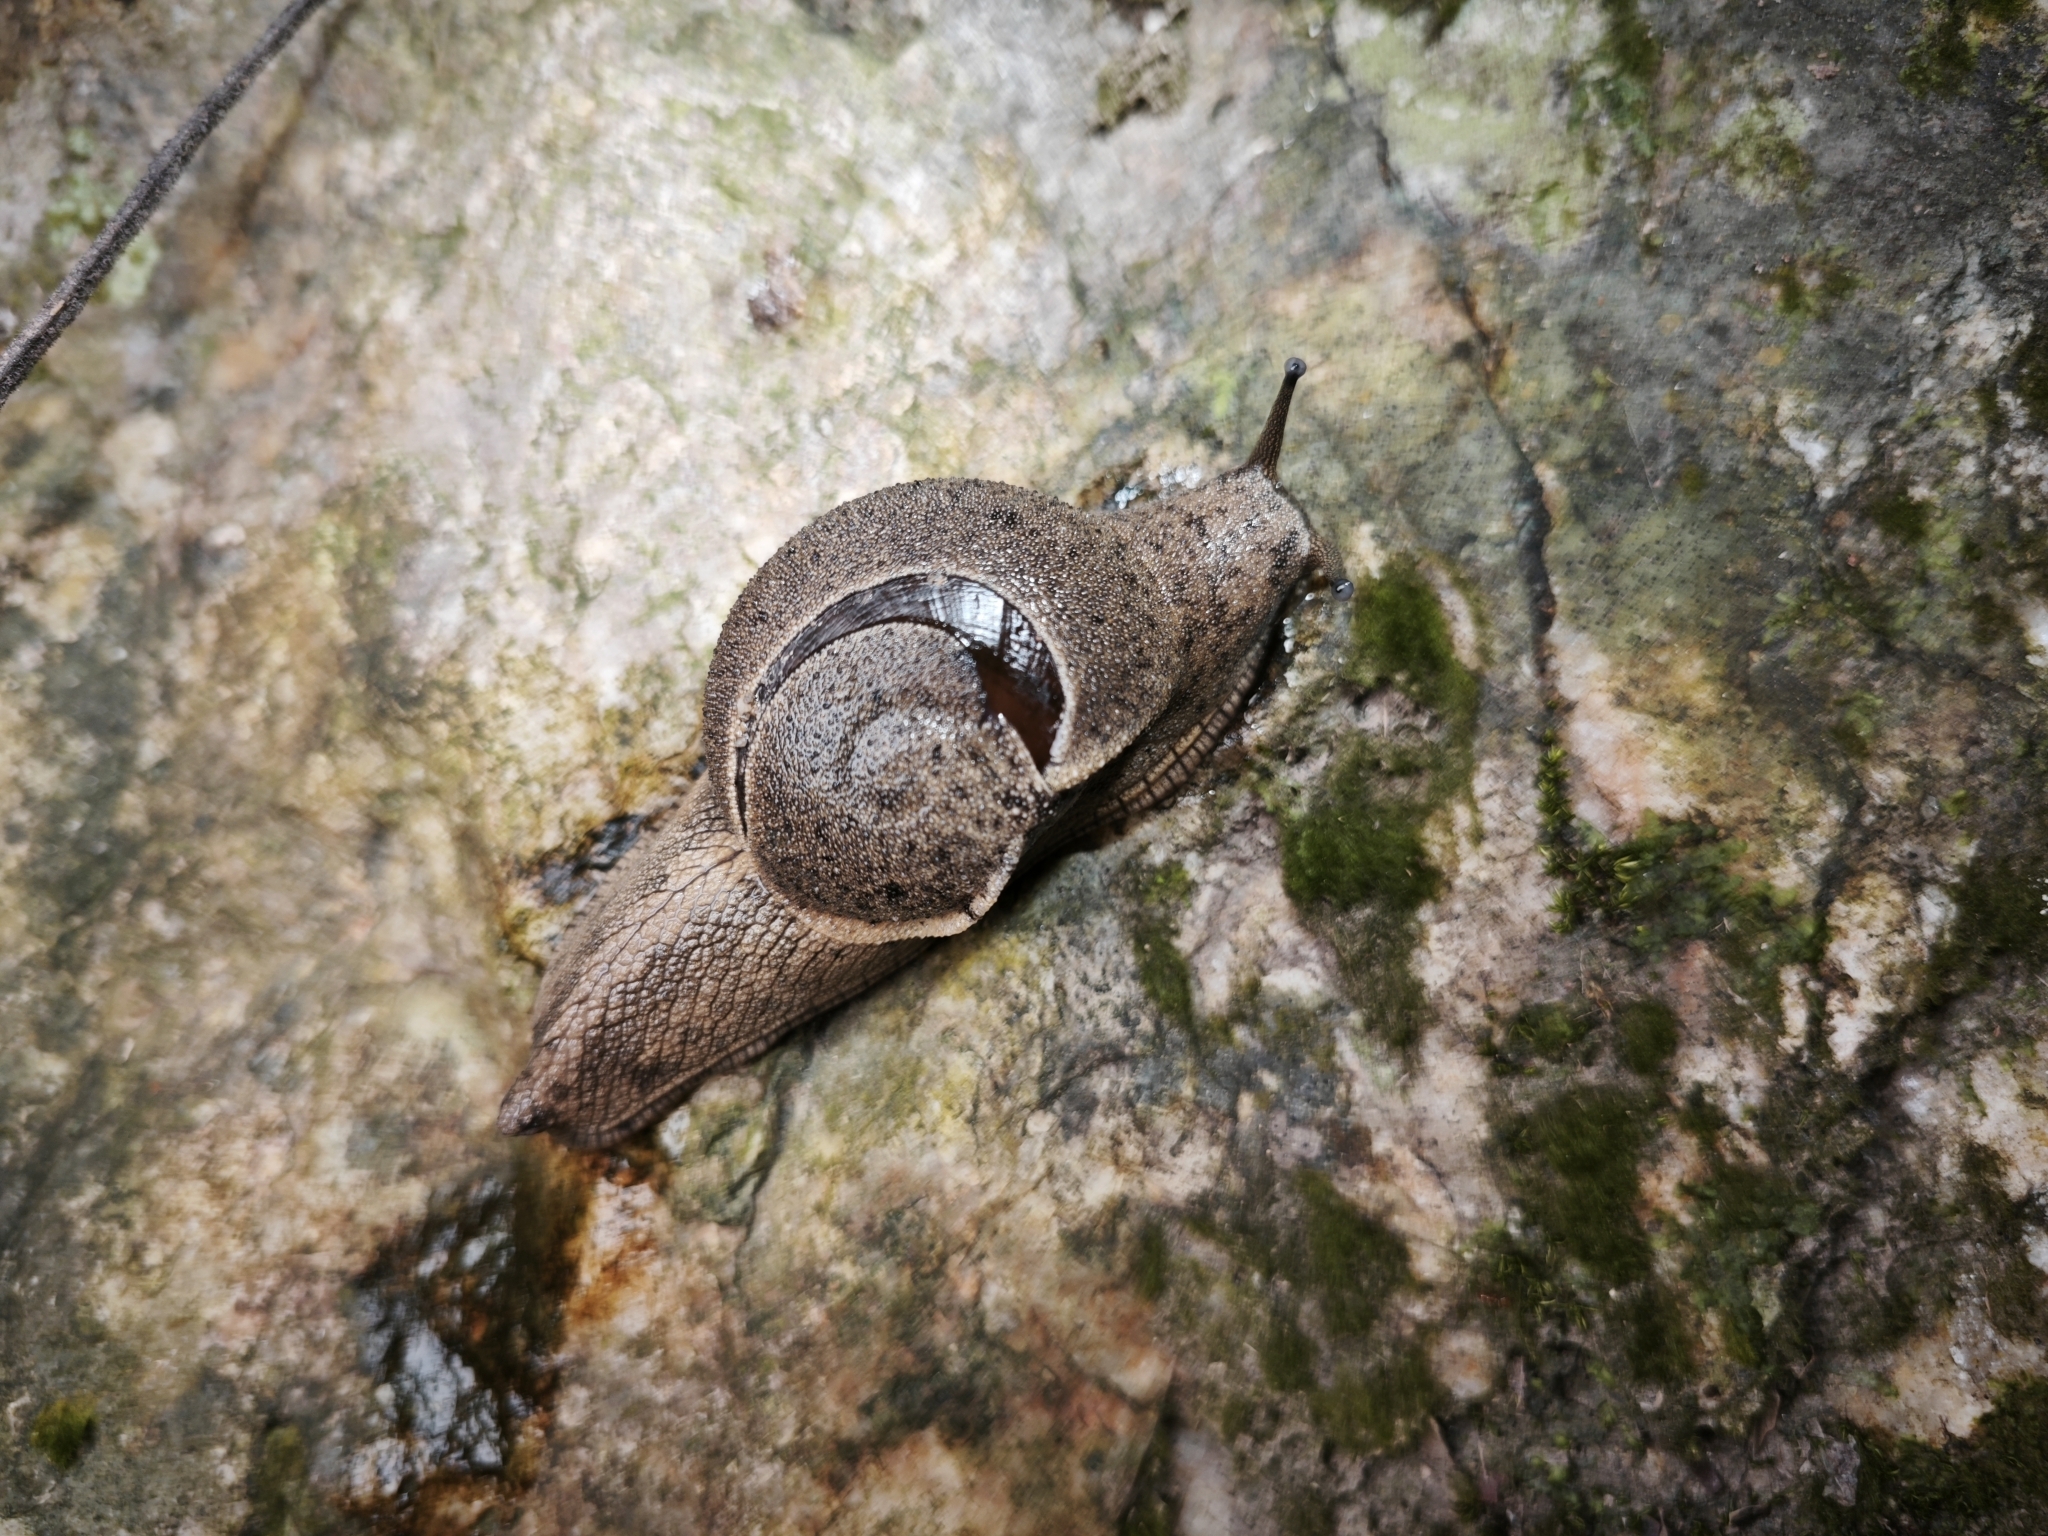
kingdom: Animalia
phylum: Mollusca
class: Gastropoda
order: Stylommatophora
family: Ariophantidae
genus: Megaustenia
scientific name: Megaustenia imperator
